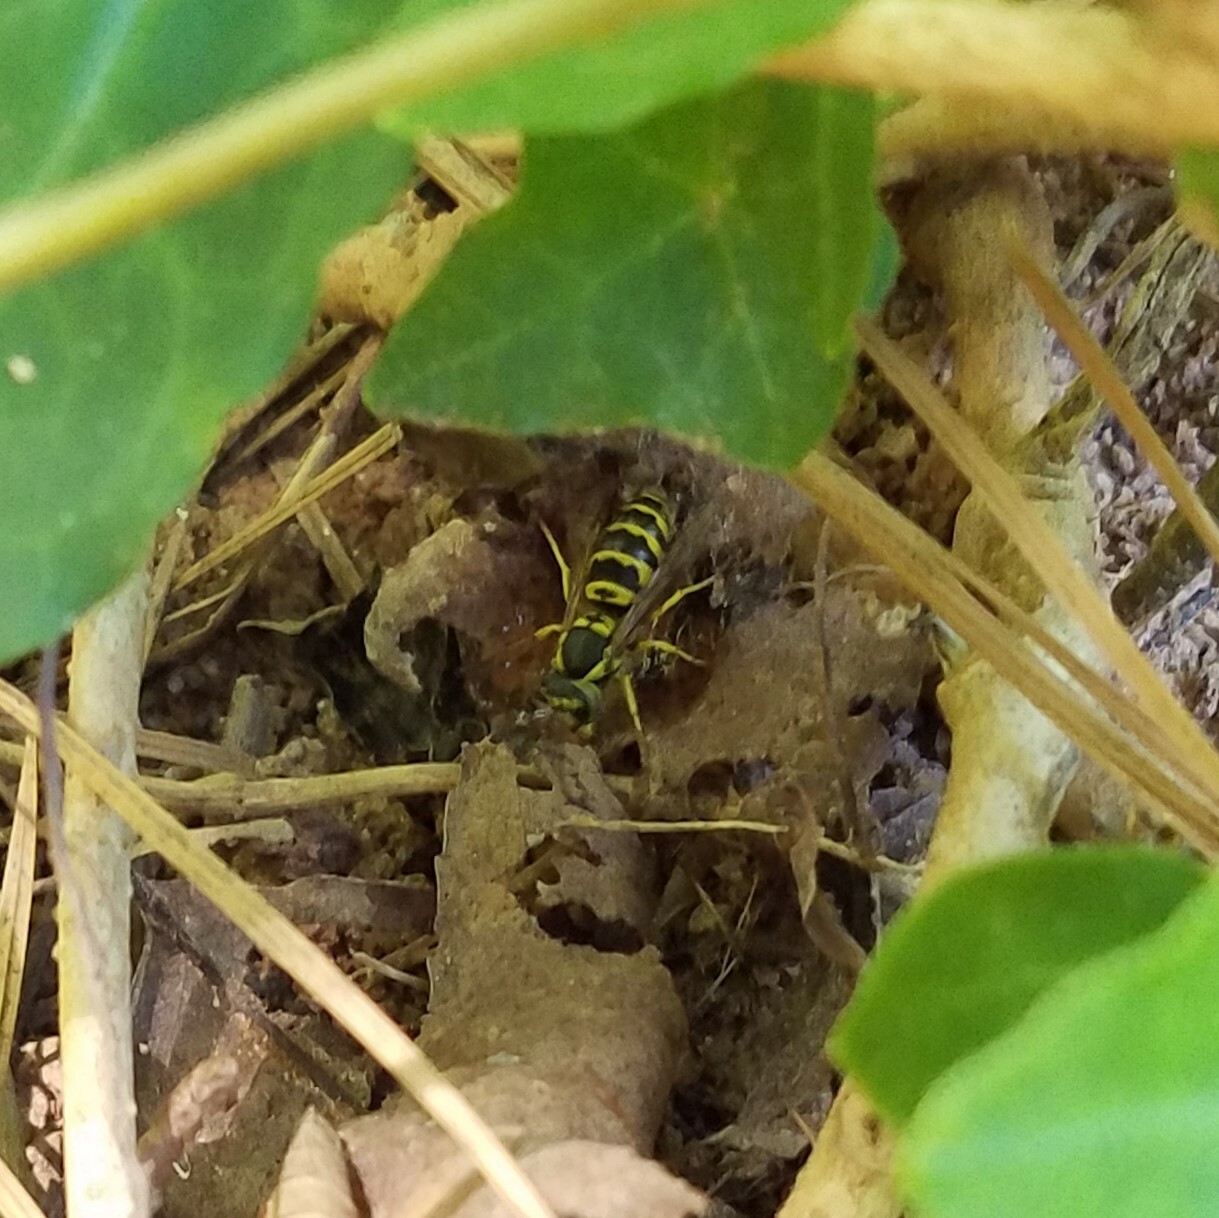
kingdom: Animalia
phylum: Arthropoda
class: Insecta
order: Hymenoptera
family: Vespidae
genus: Vespula
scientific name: Vespula maculifrons
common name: Eastern yellowjacket
